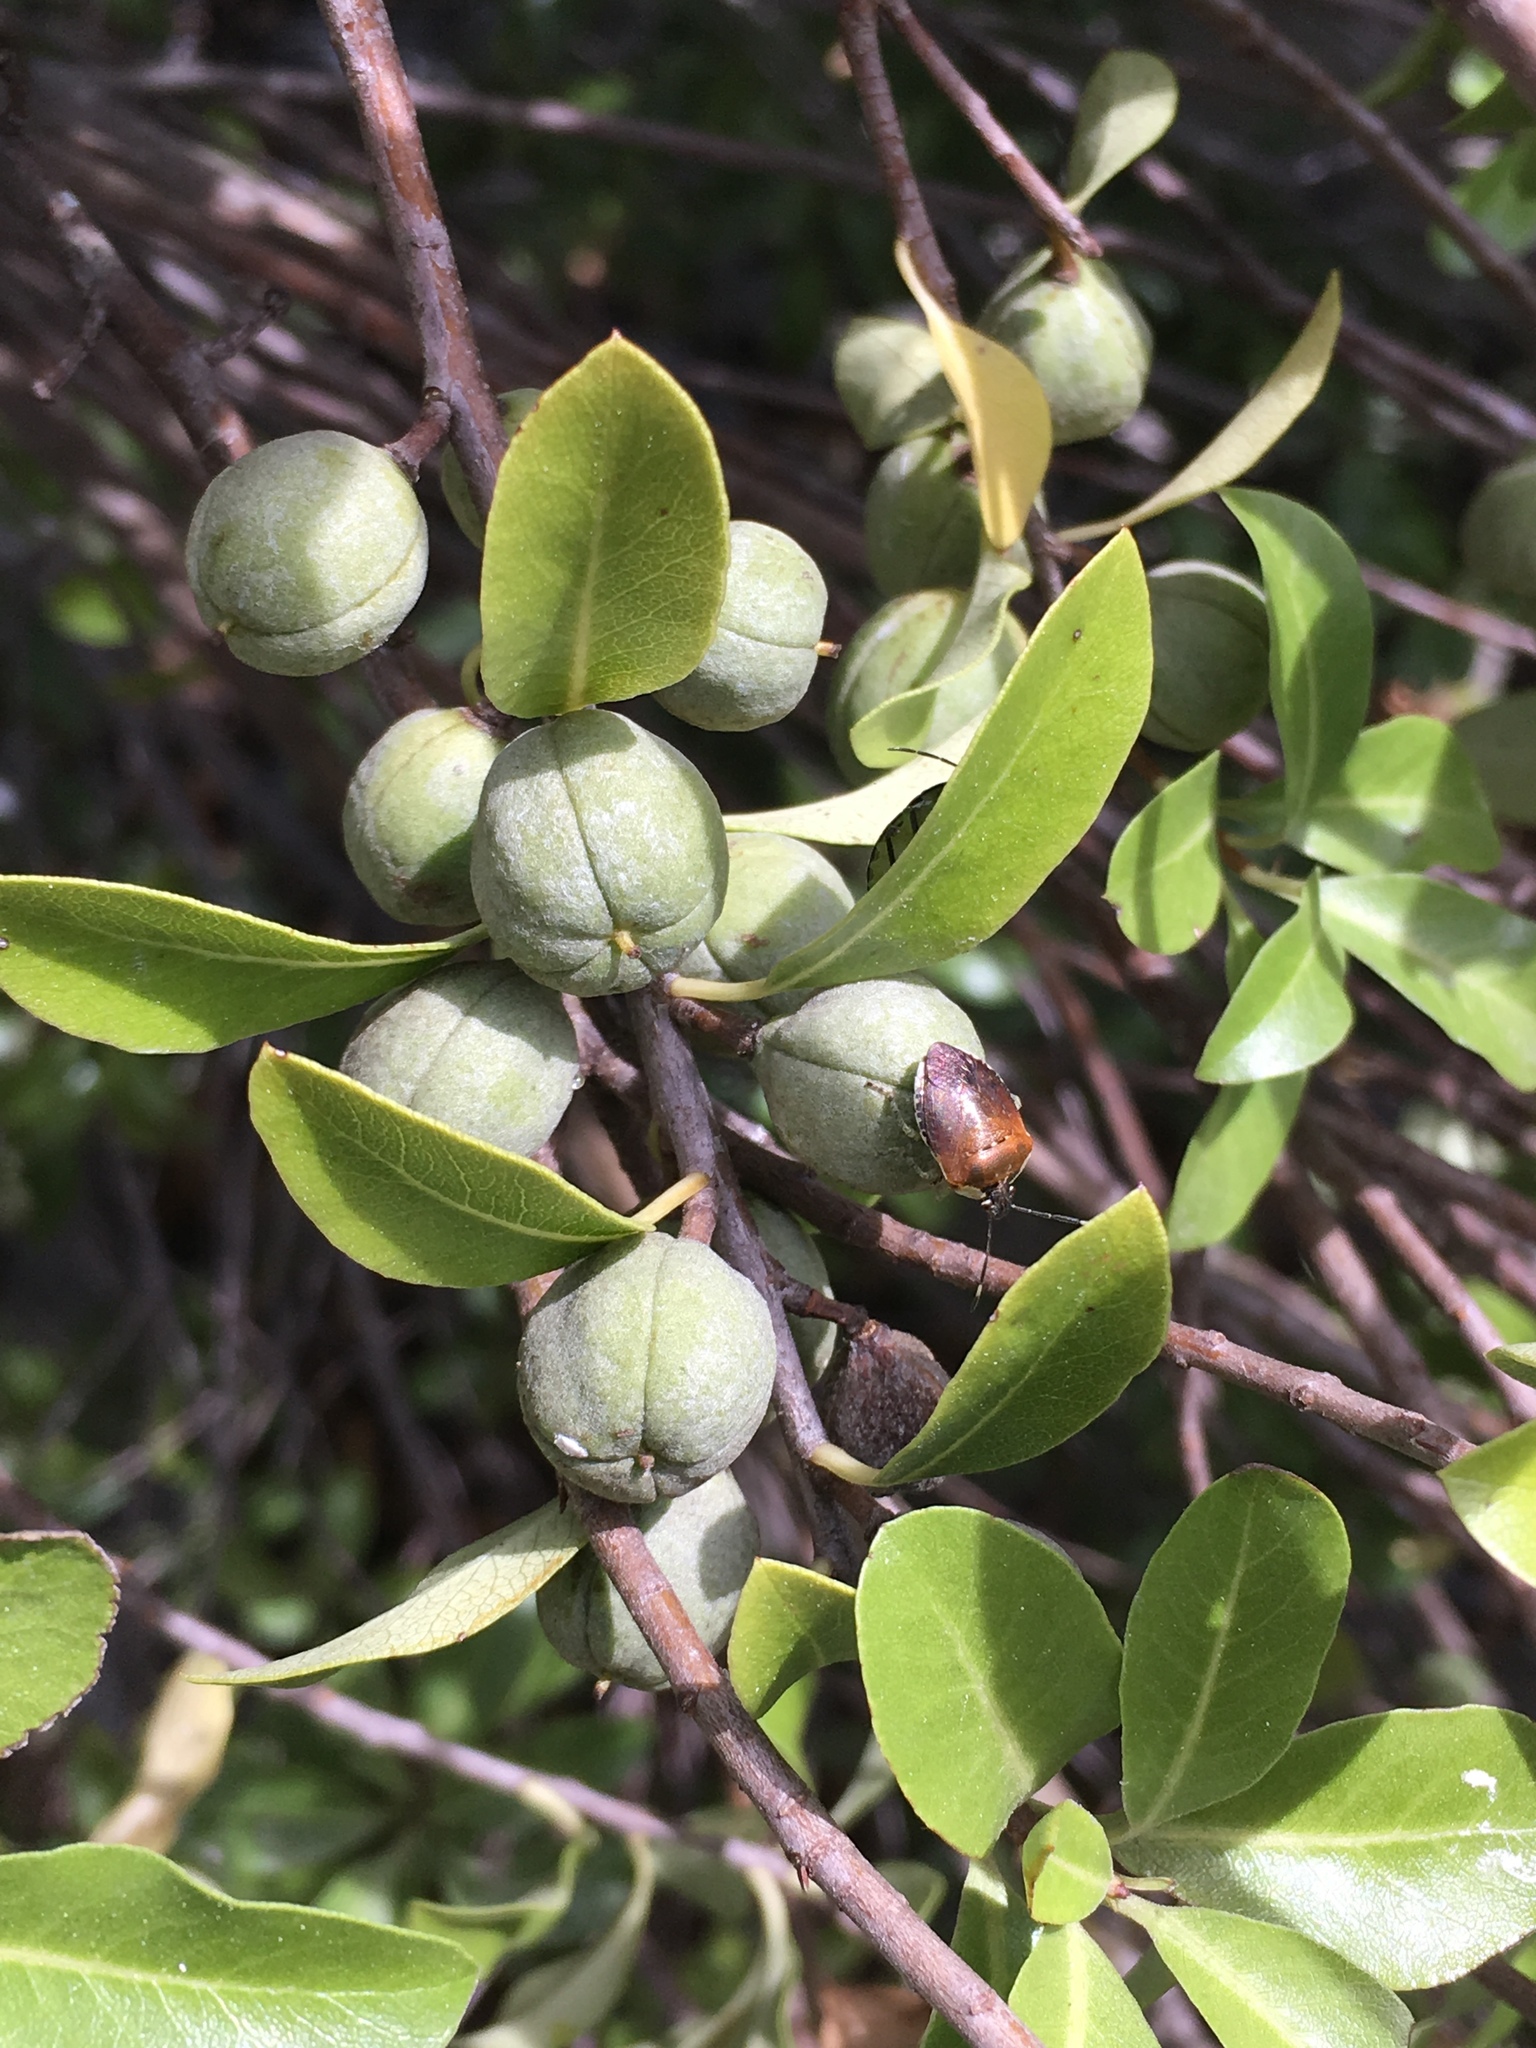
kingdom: Animalia
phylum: Arthropoda
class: Insecta
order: Hemiptera
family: Pentatomidae
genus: Monteithiella
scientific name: Monteithiella
